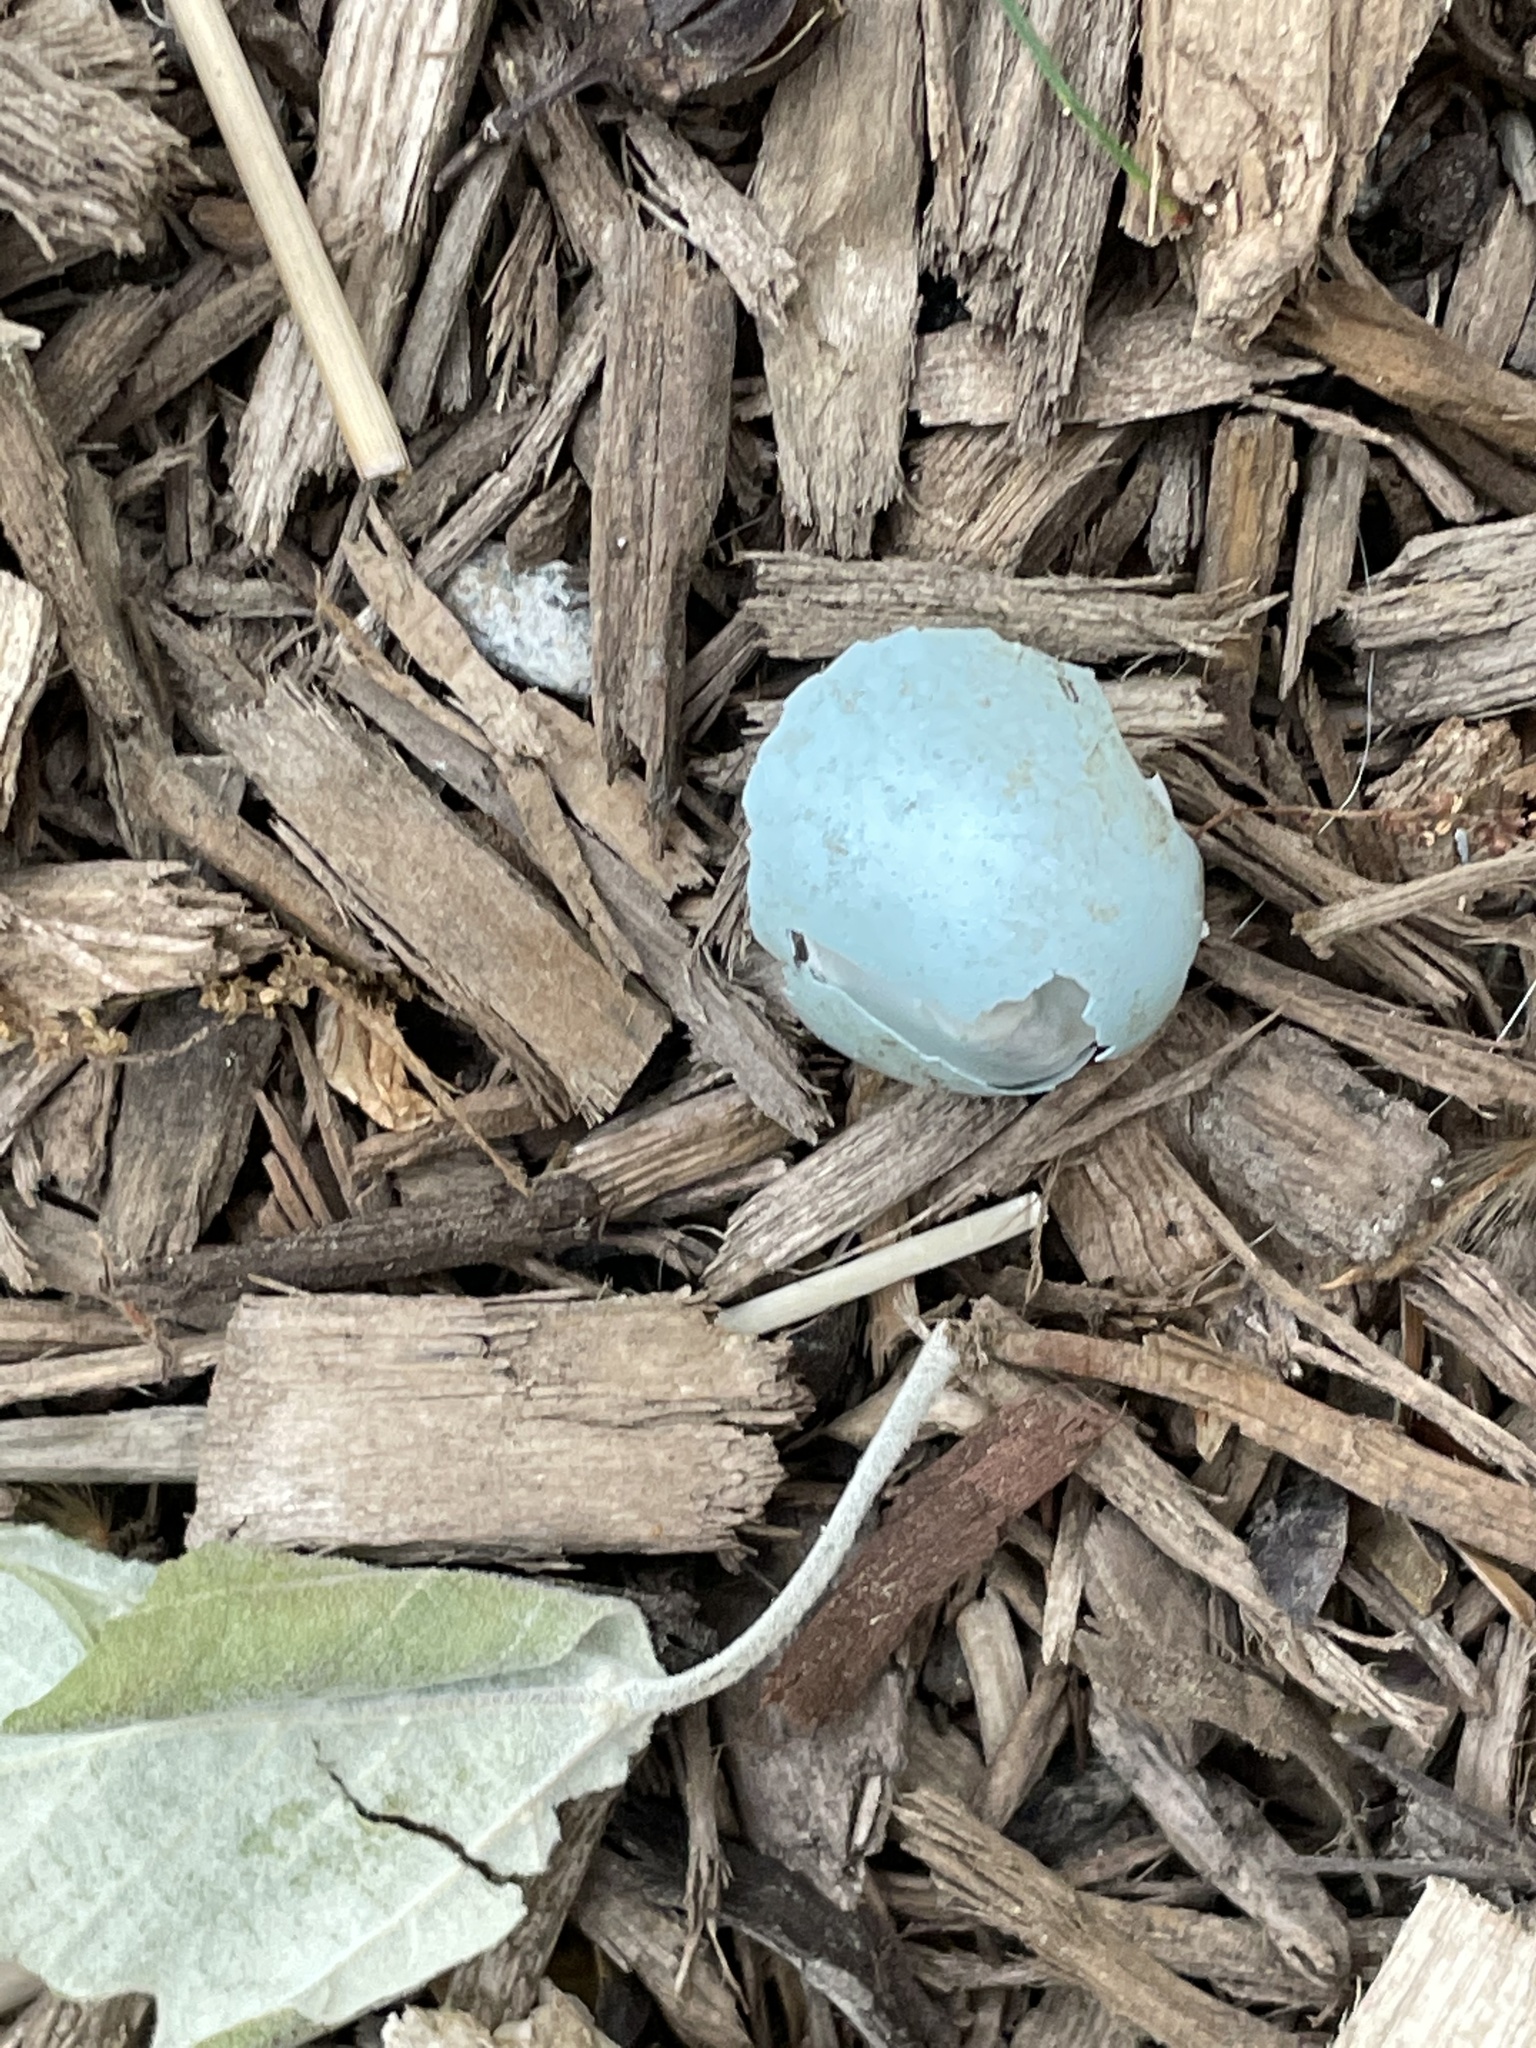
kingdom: Animalia
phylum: Chordata
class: Aves
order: Passeriformes
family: Turdidae
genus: Turdus
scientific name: Turdus migratorius
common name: American robin
